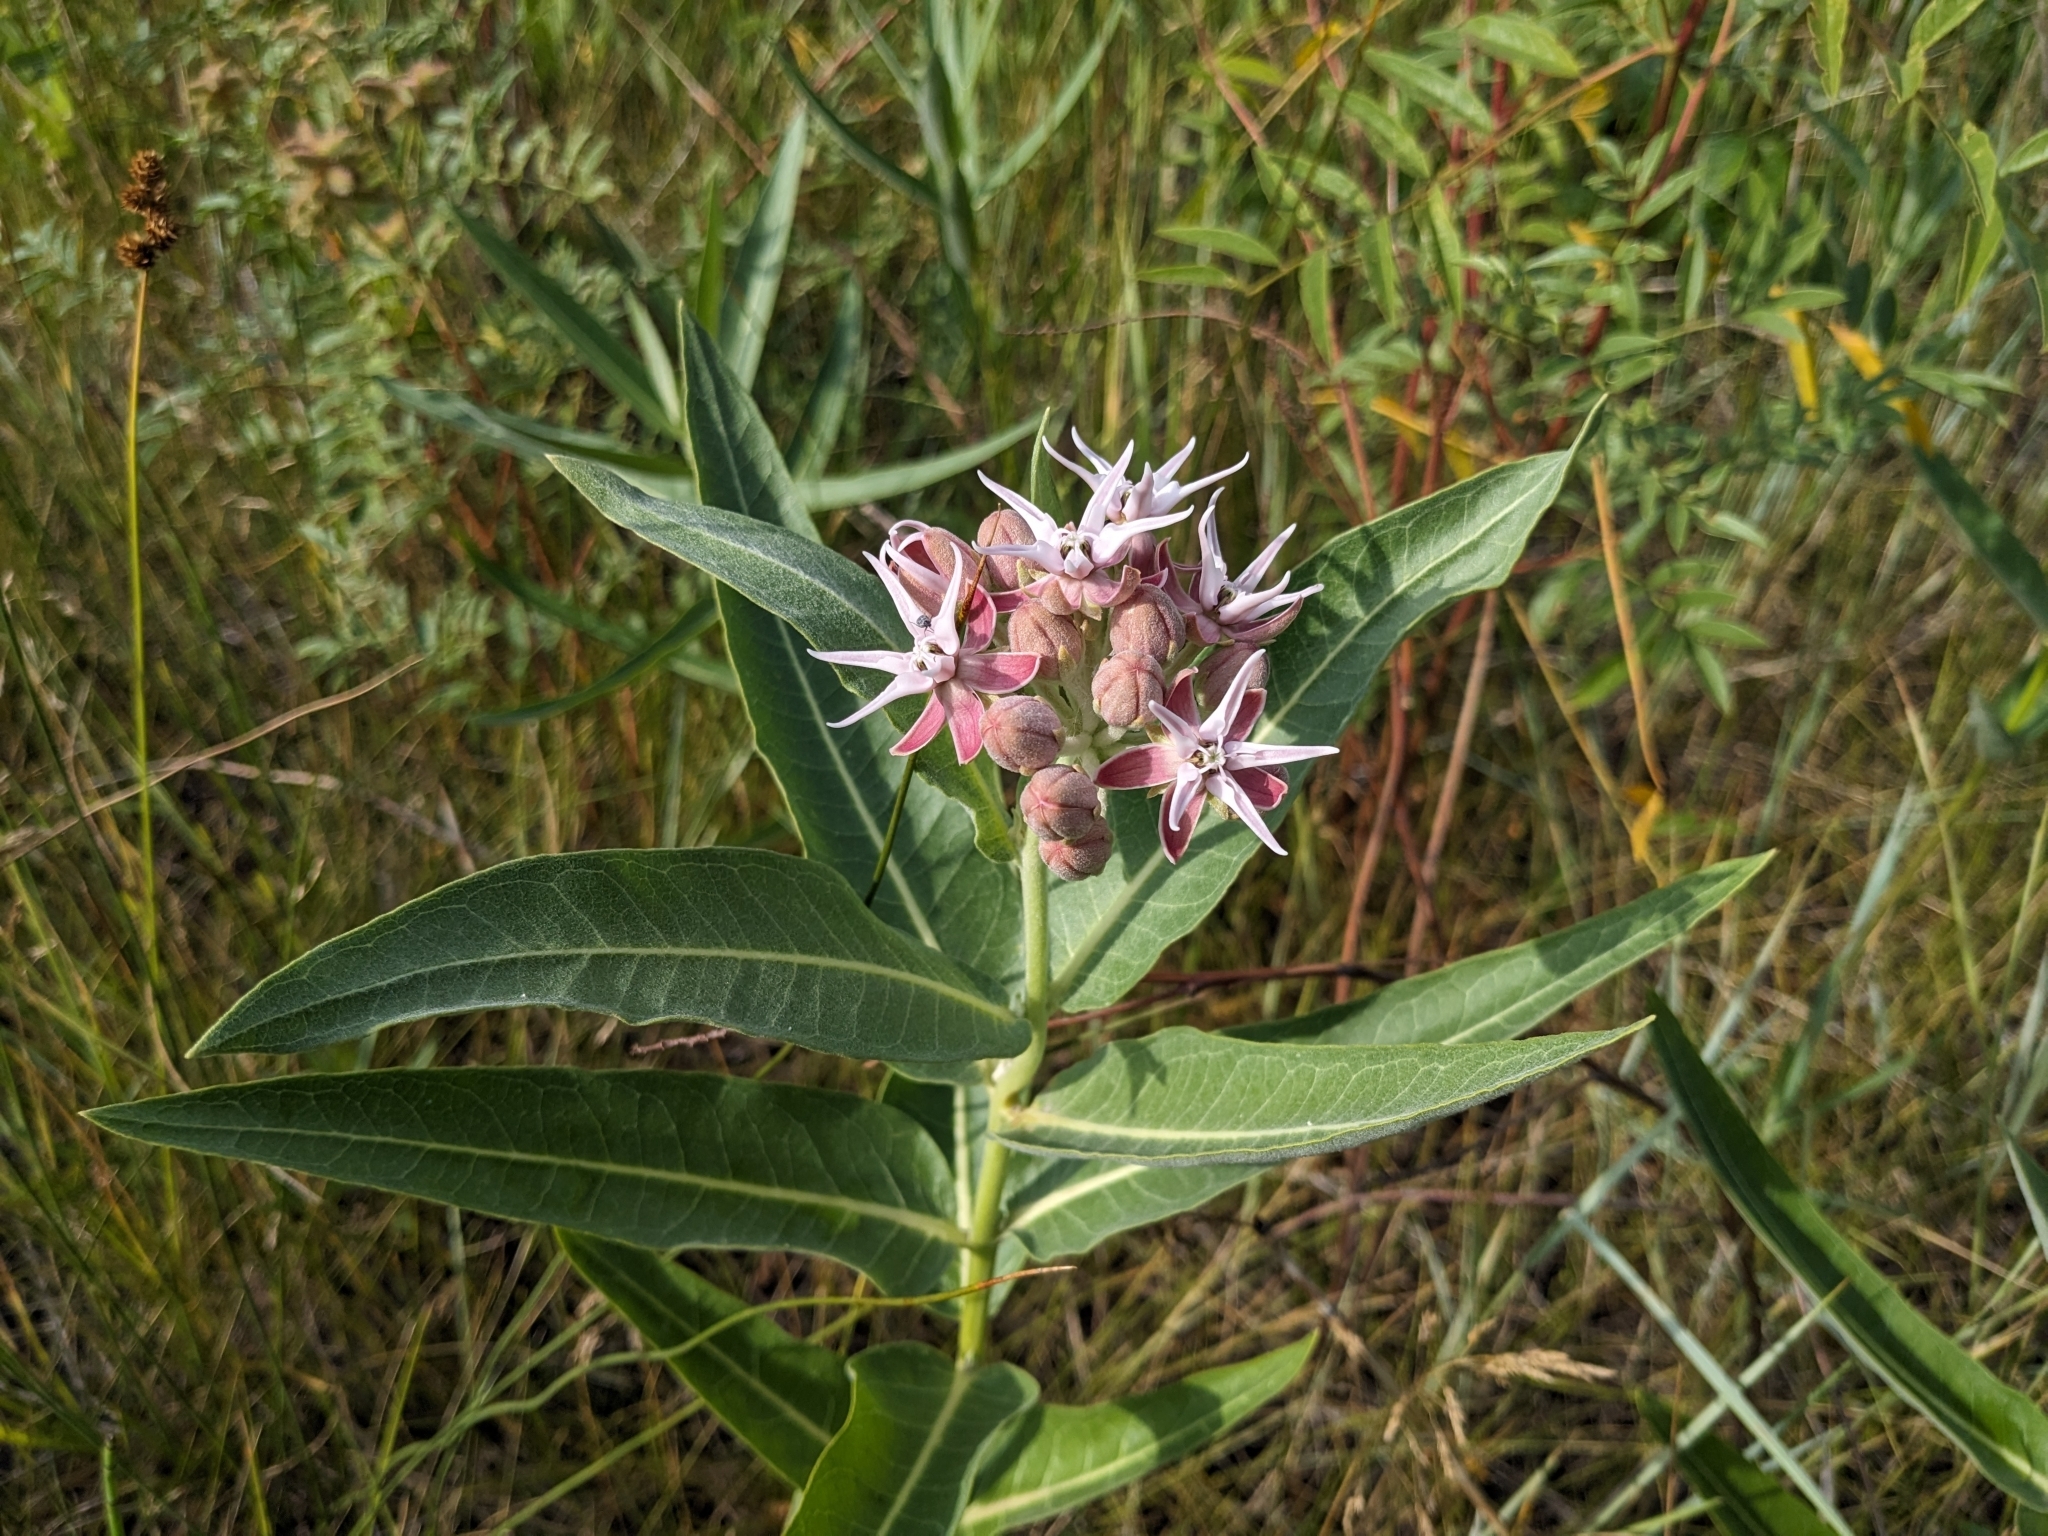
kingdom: Plantae
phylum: Tracheophyta
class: Magnoliopsida
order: Gentianales
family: Apocynaceae
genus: Asclepias
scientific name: Asclepias speciosa
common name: Showy milkweed
